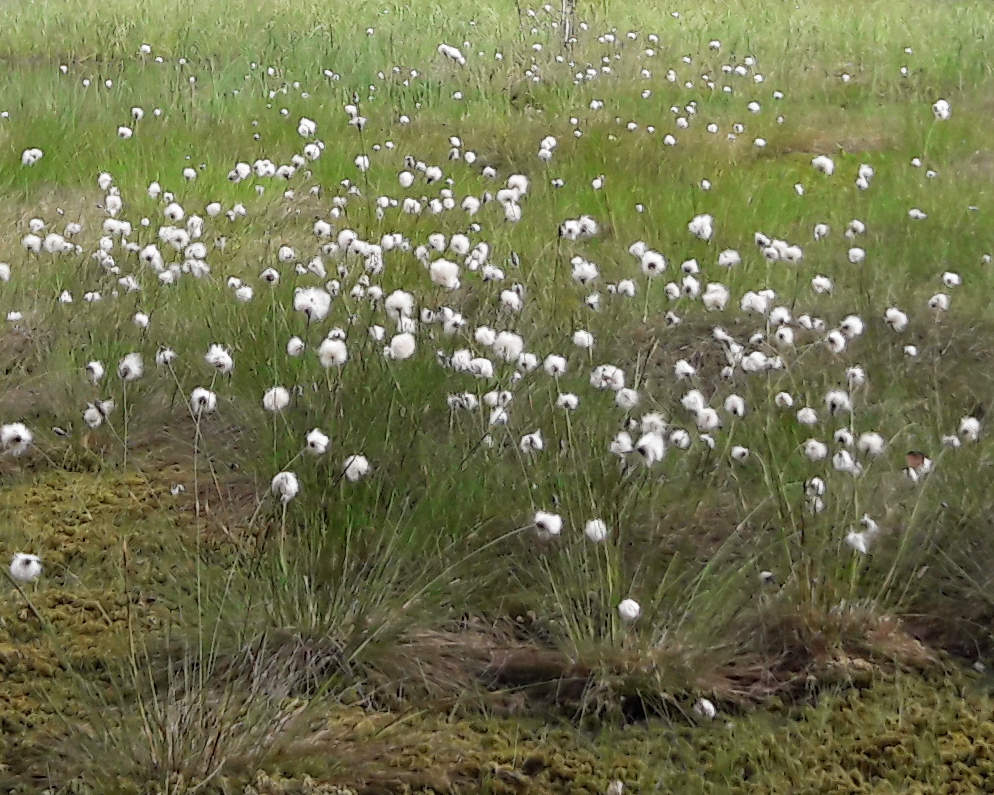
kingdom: Plantae
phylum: Tracheophyta
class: Liliopsida
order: Poales
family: Cyperaceae
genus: Eriophorum
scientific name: Eriophorum vaginatum
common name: Hare's-tail cottongrass
